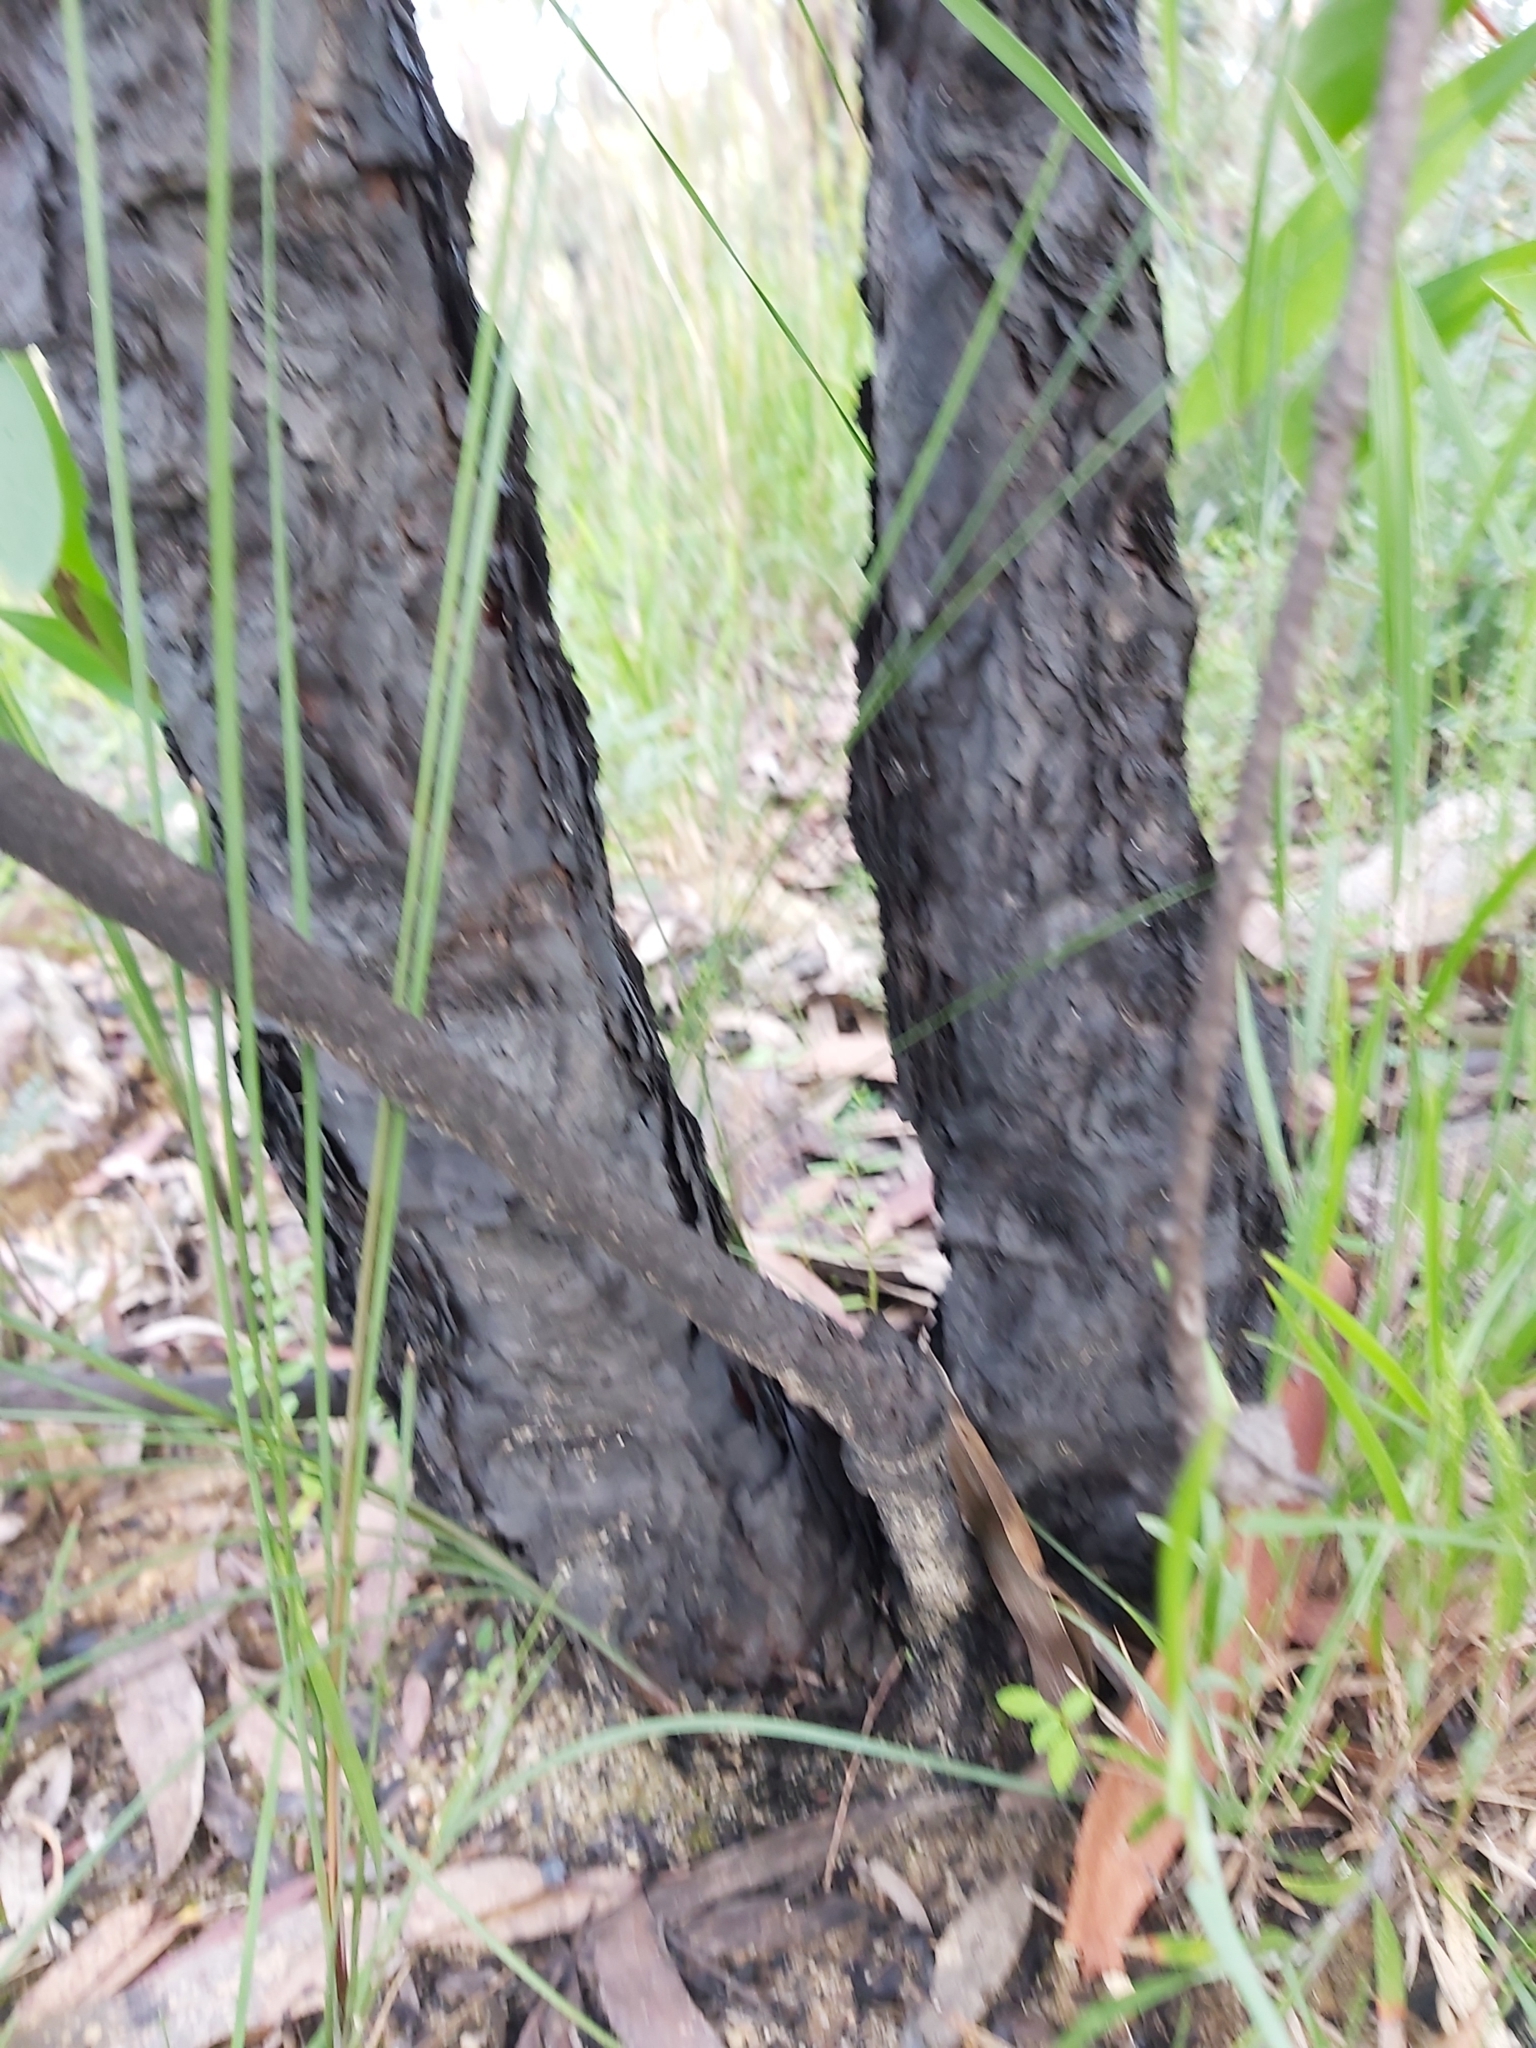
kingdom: Plantae
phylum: Tracheophyta
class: Magnoliopsida
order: Proteales
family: Proteaceae
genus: Persoonia
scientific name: Persoonia levis
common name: Smooth geebung
